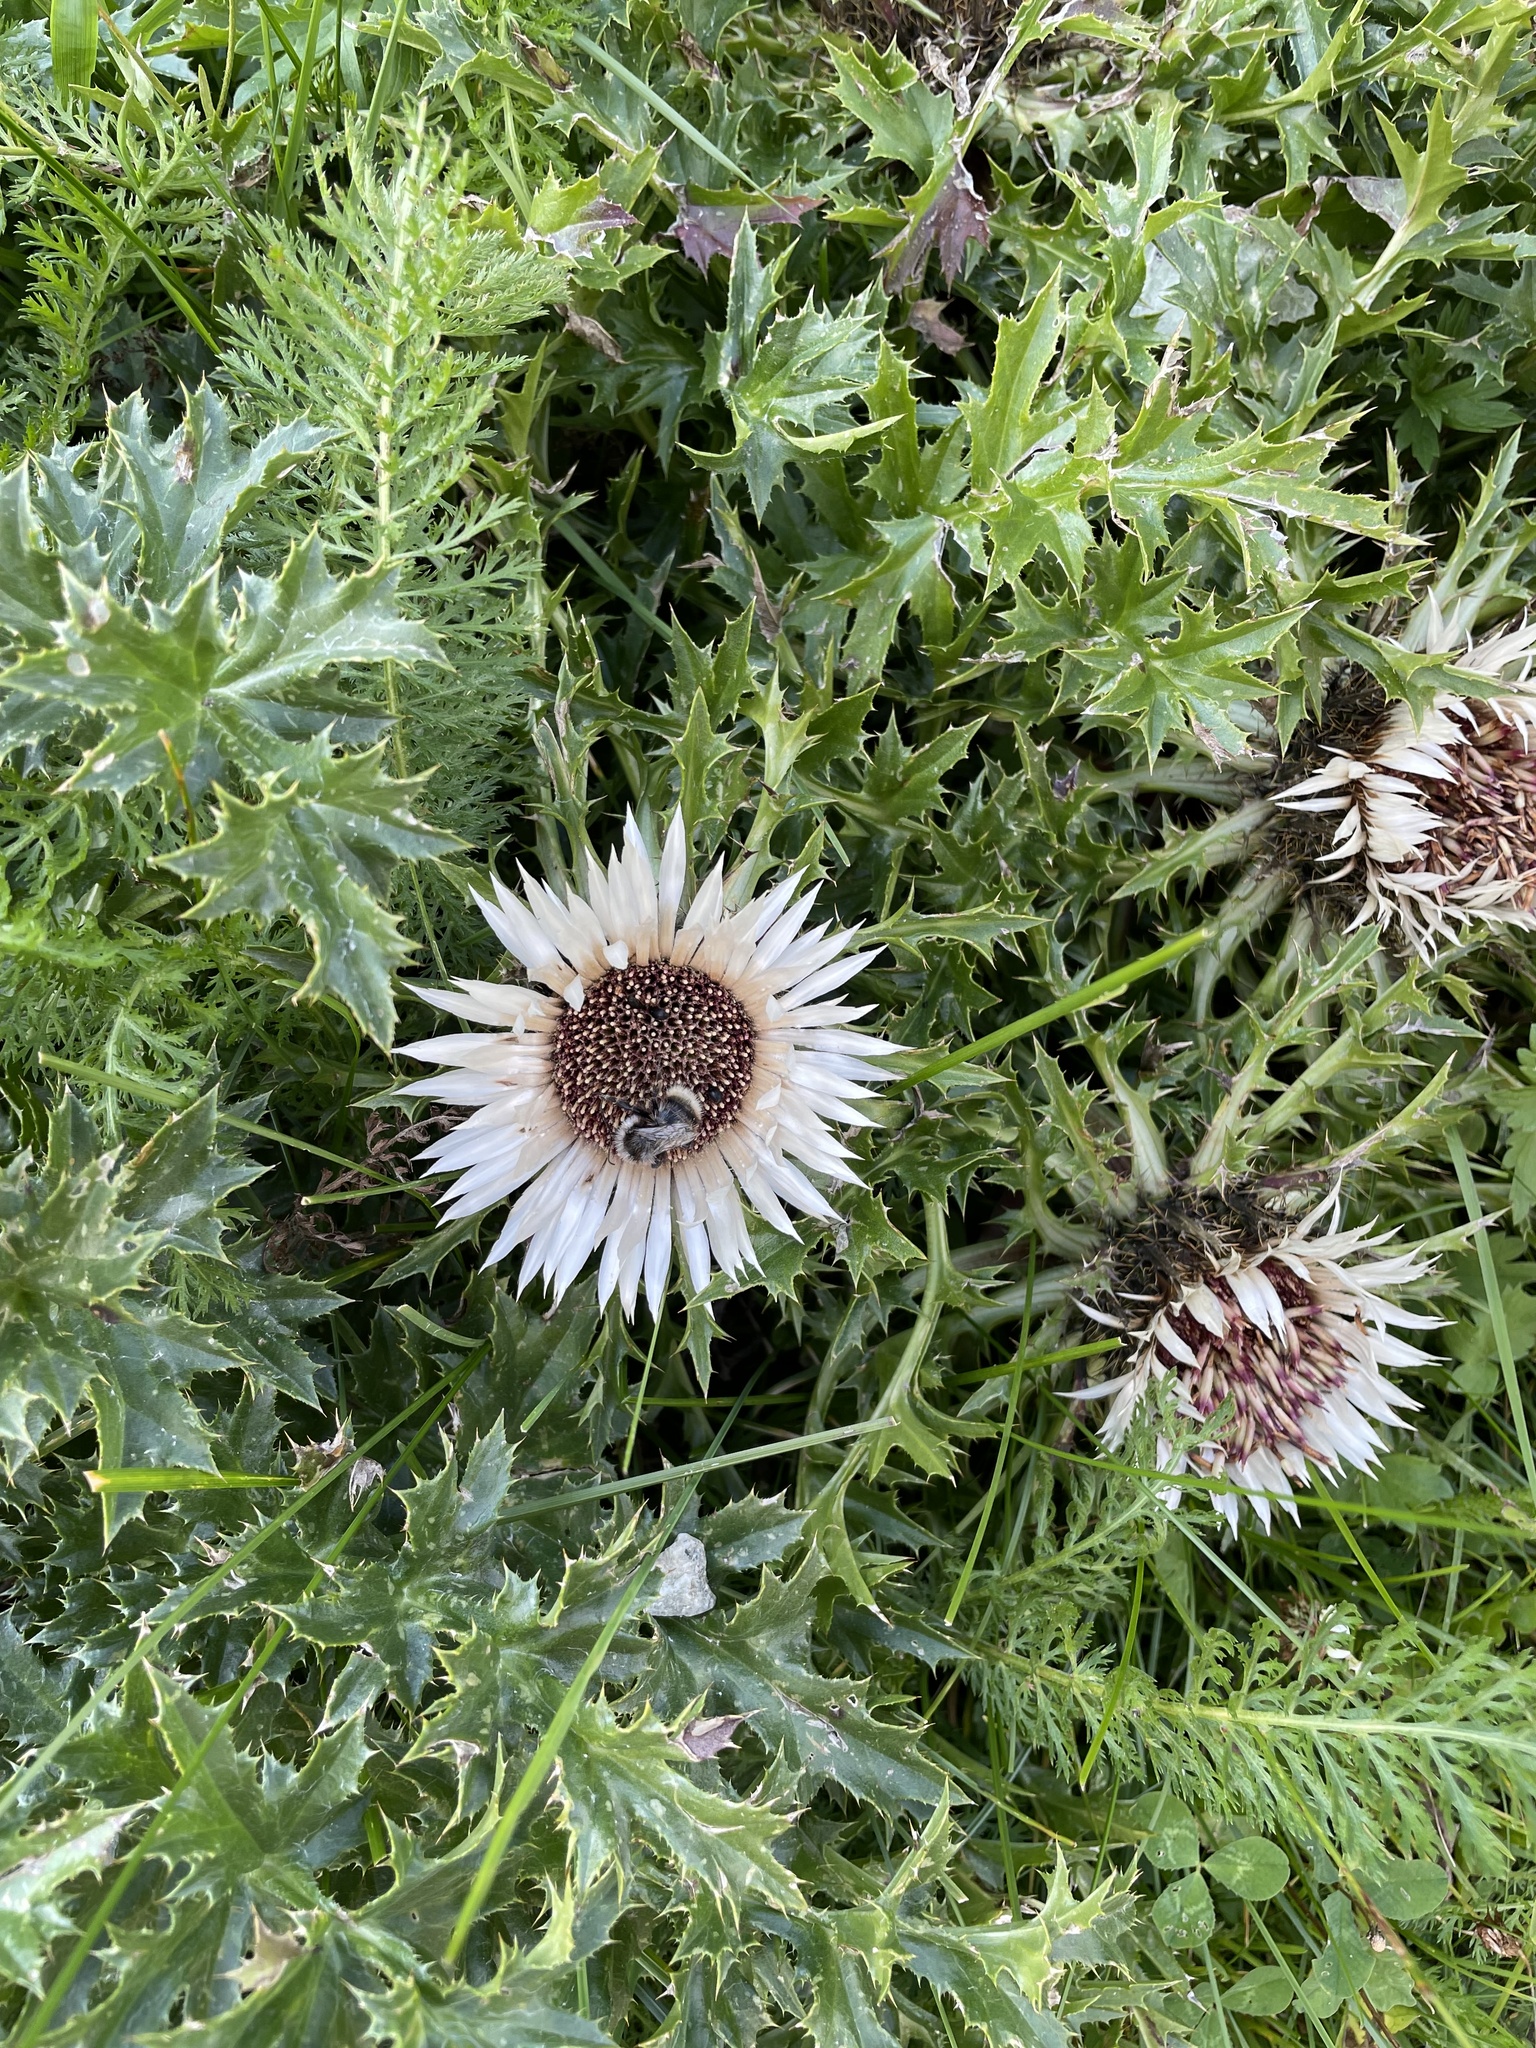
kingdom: Plantae
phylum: Tracheophyta
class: Magnoliopsida
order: Asterales
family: Asteraceae
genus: Carlina
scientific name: Carlina acaulis
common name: Stemless carline thistle
